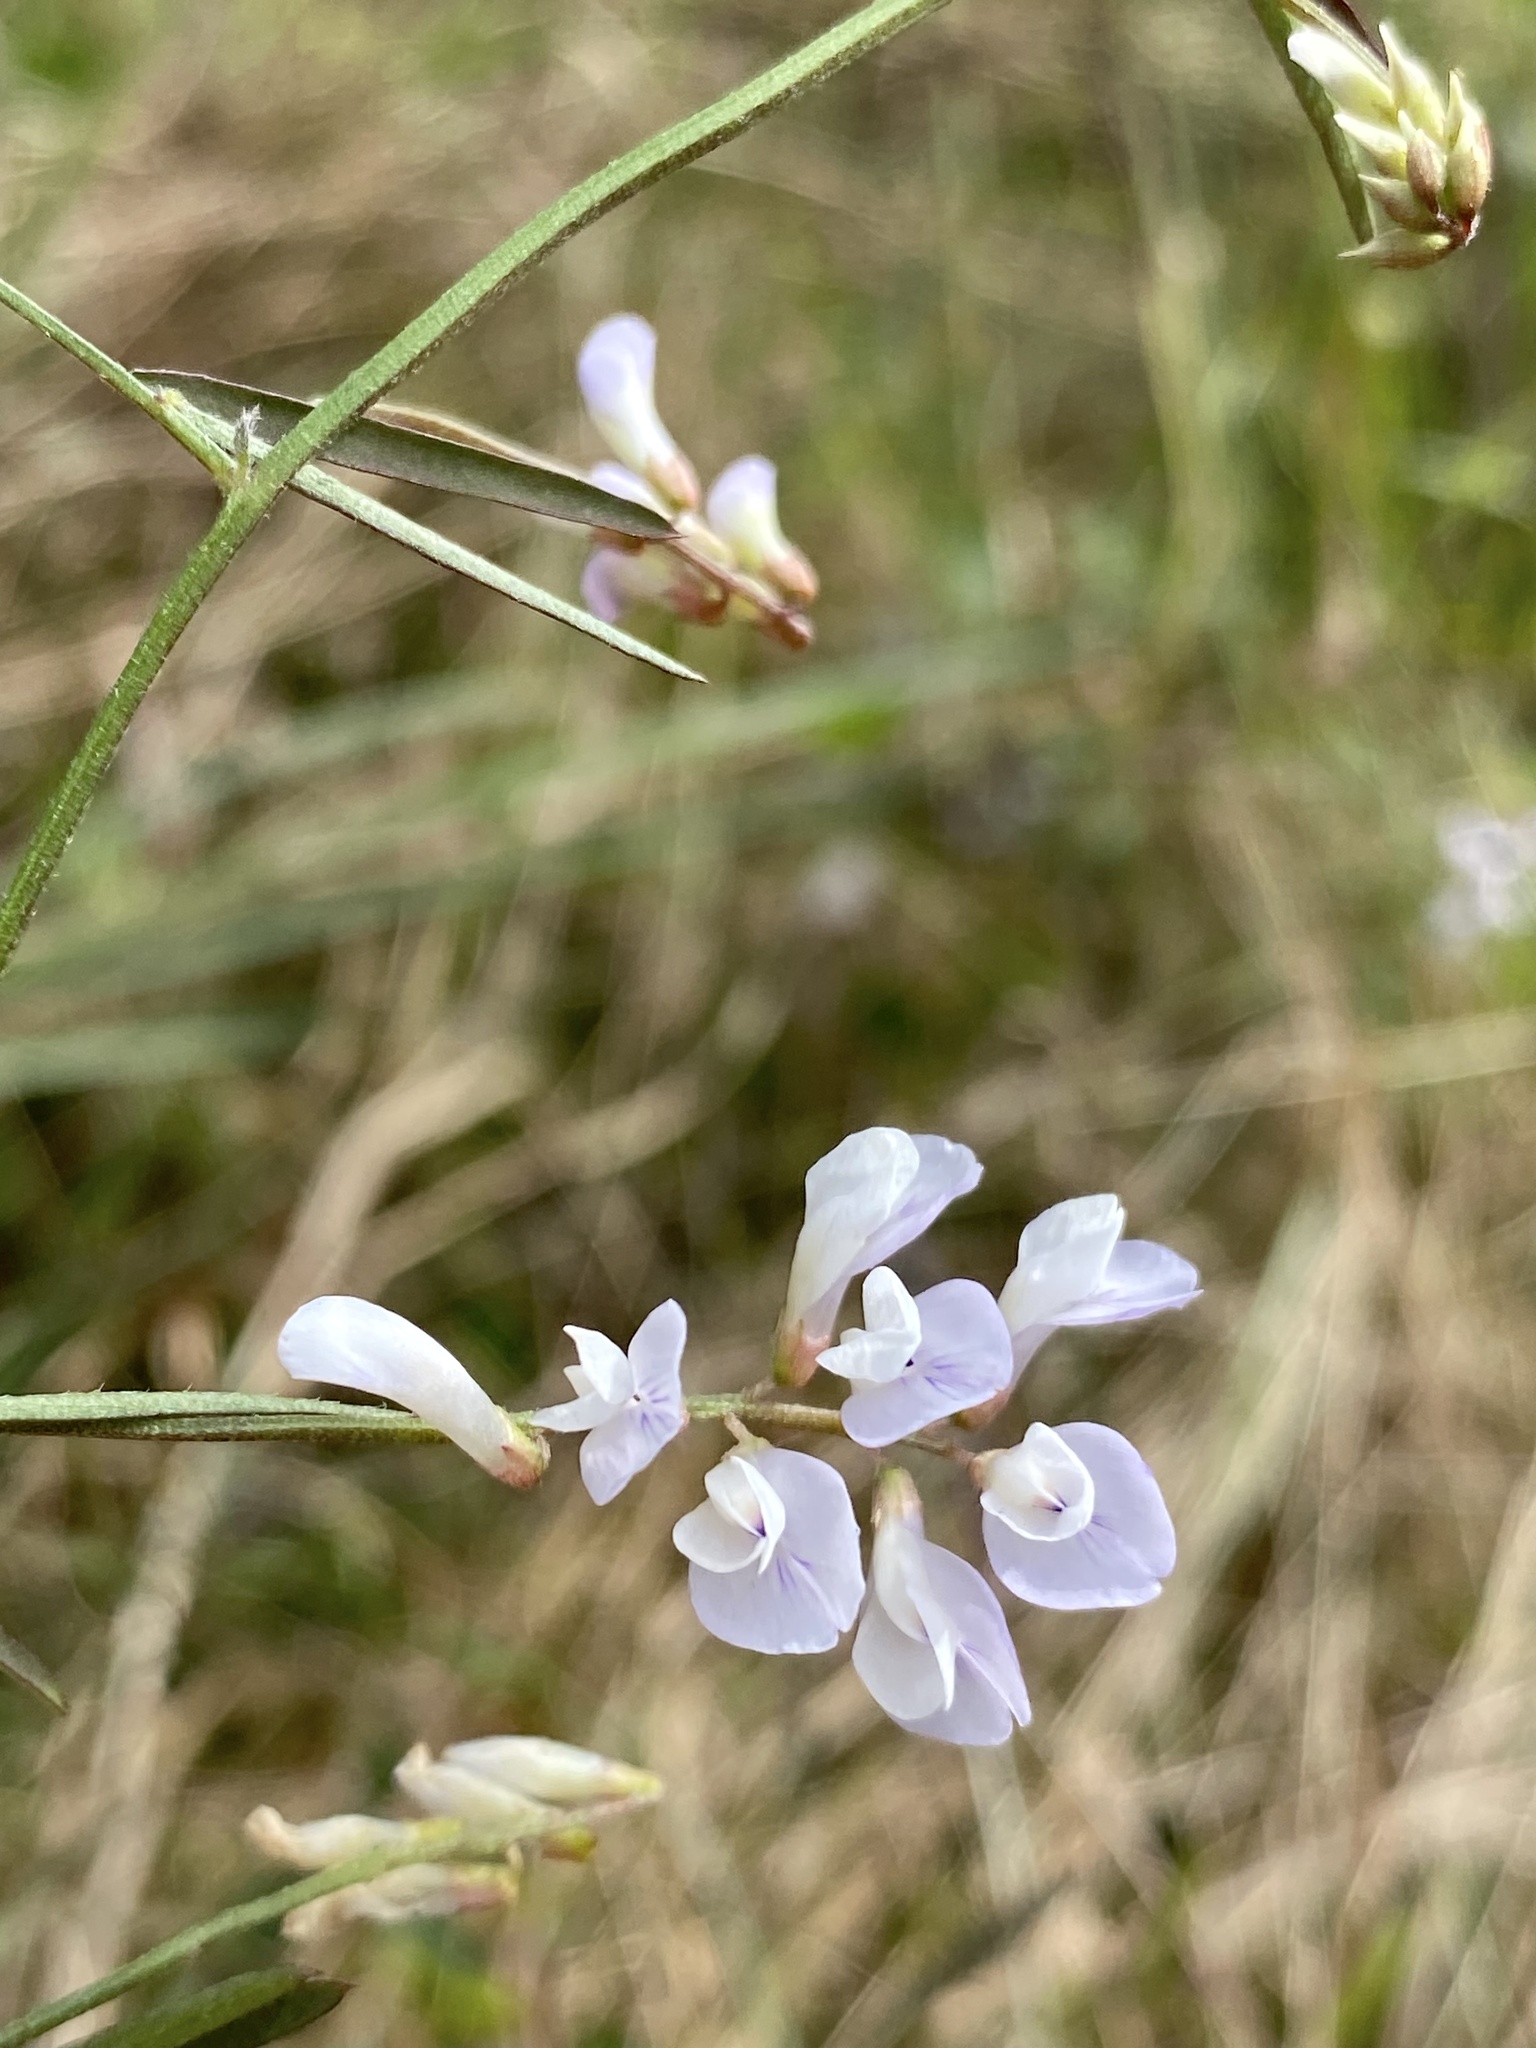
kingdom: Plantae
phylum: Tracheophyta
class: Magnoliopsida
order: Fabales
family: Fabaceae
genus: Vicia
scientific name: Vicia acutifolia
